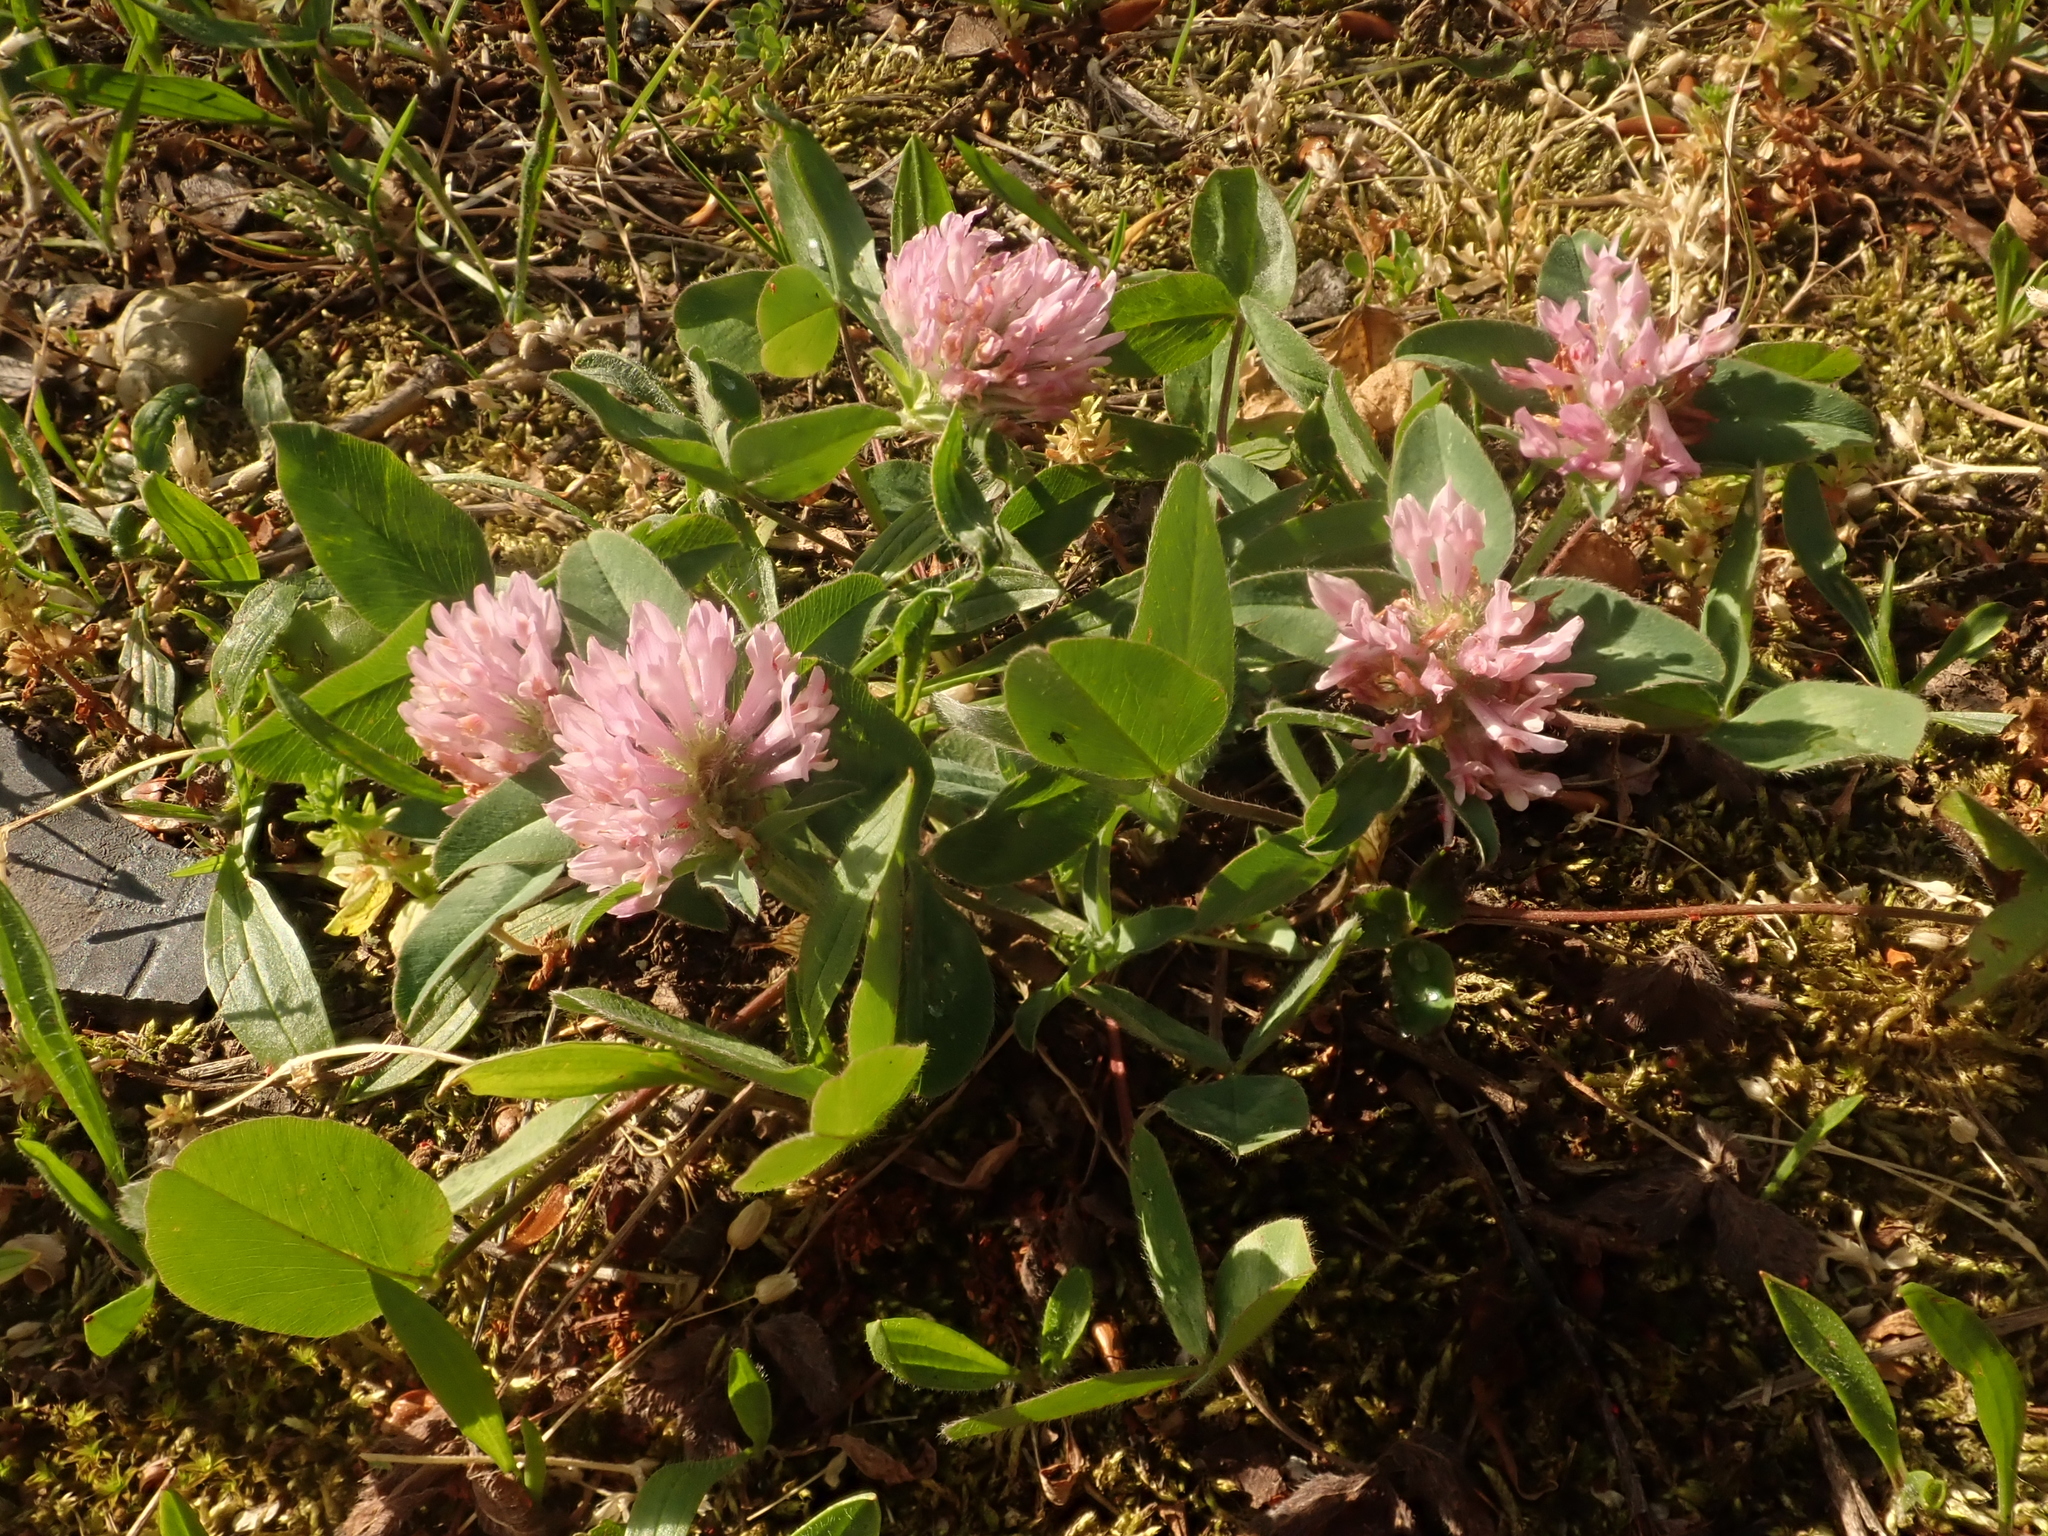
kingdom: Plantae
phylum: Tracheophyta
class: Magnoliopsida
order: Fabales
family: Fabaceae
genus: Trifolium
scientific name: Trifolium pratense
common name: Red clover
